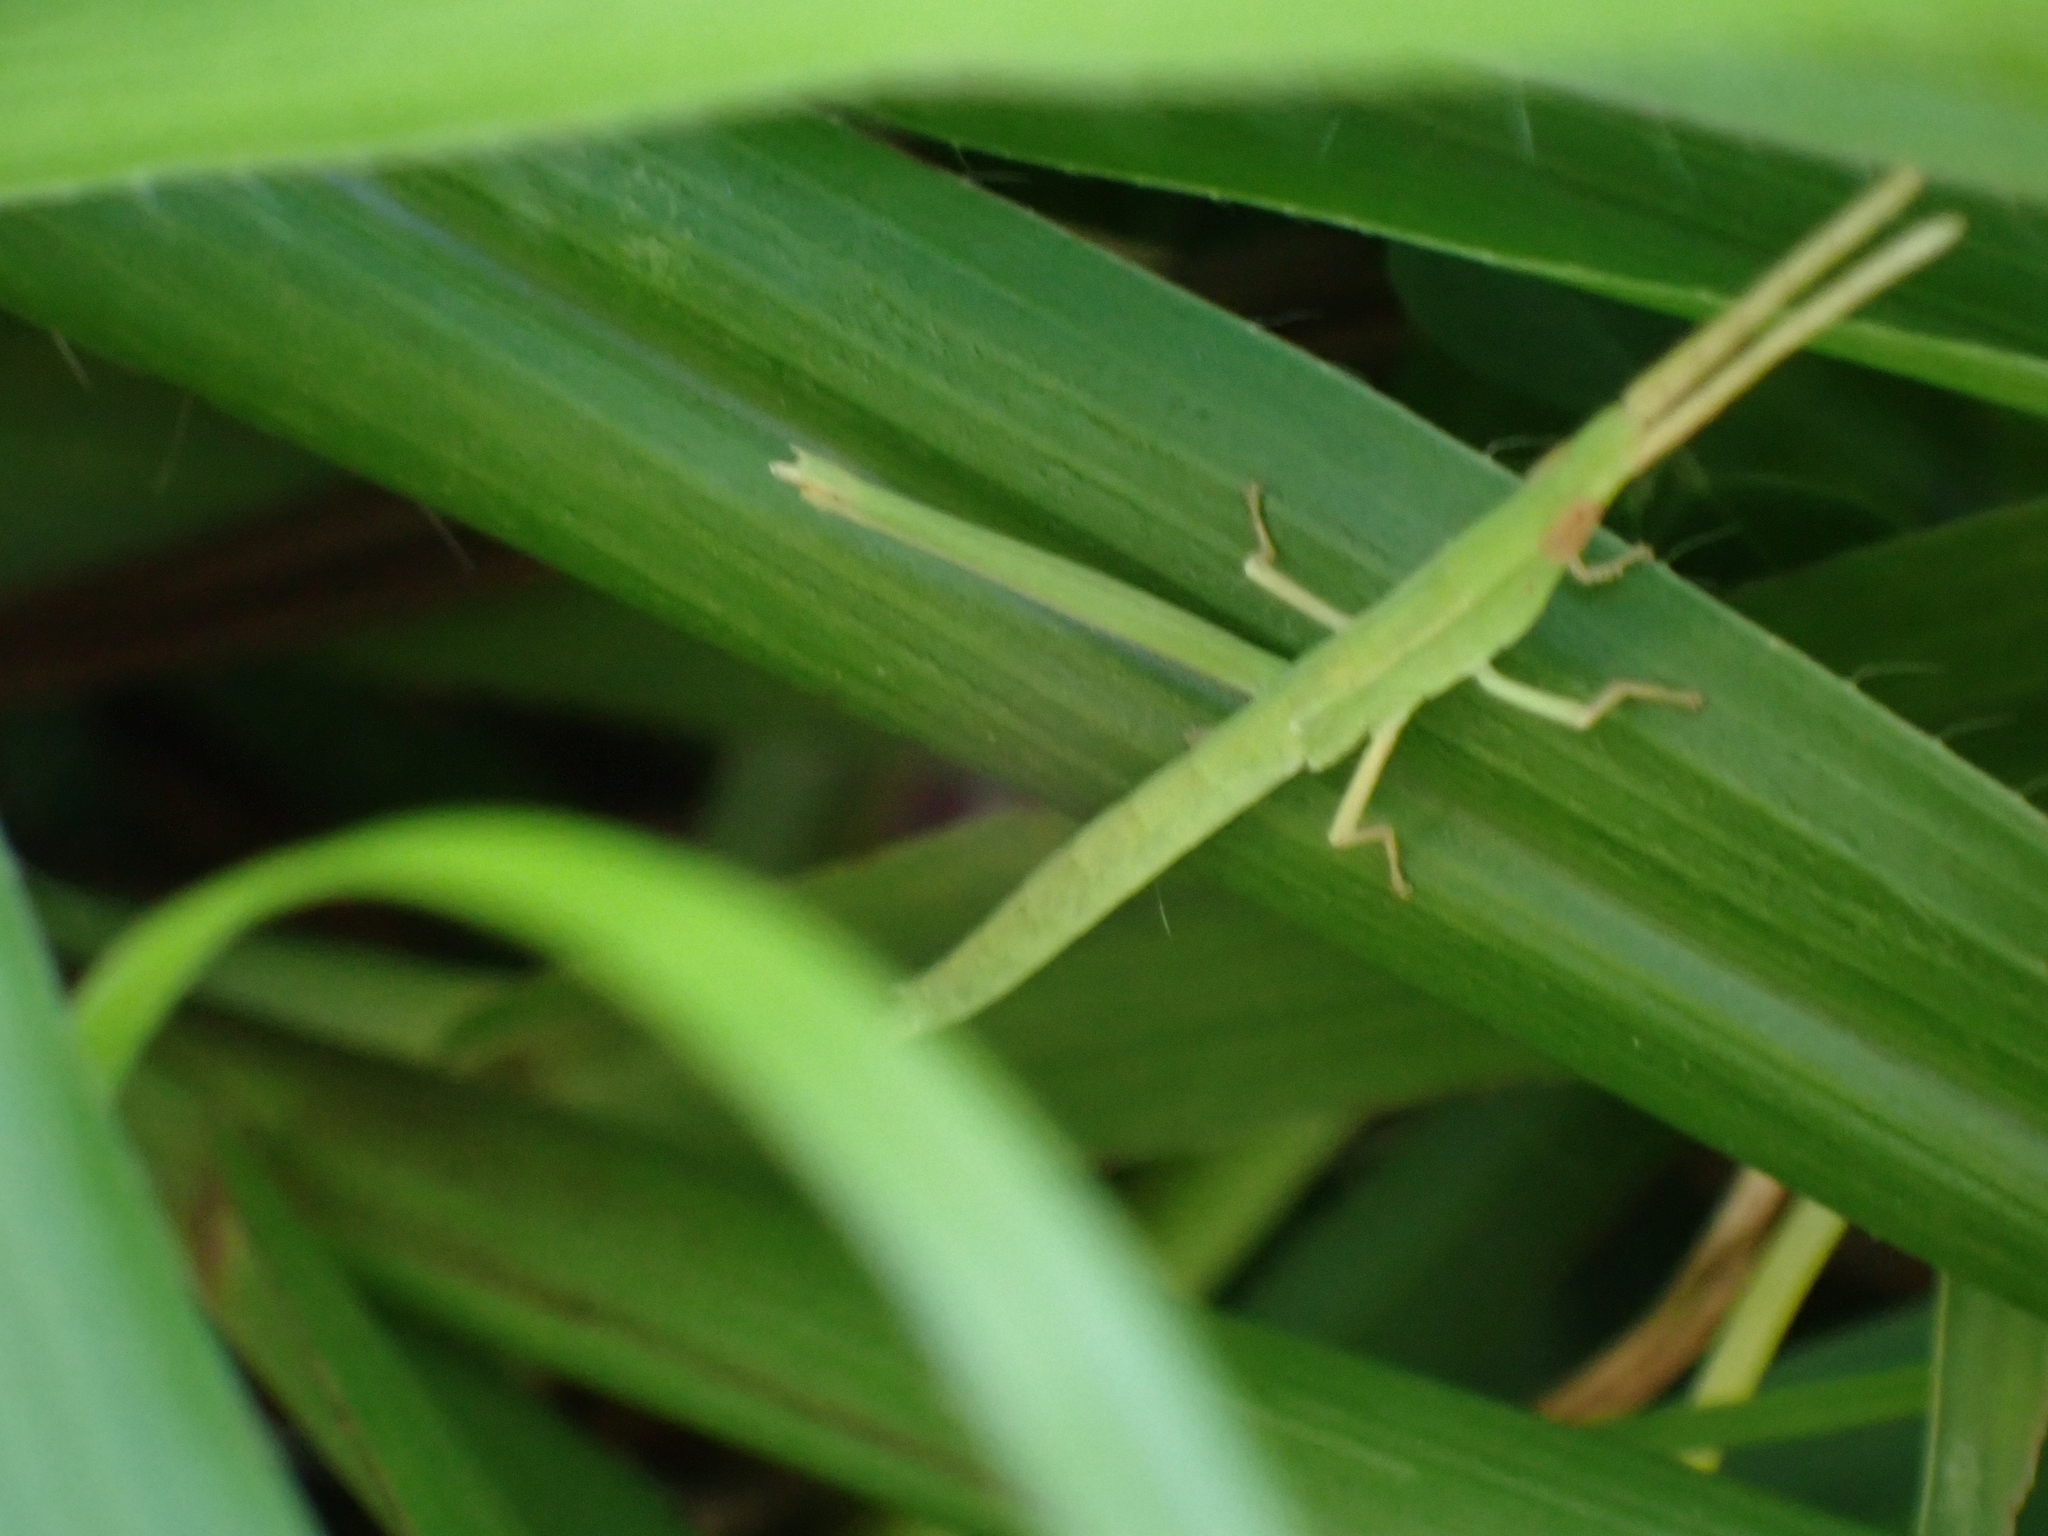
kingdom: Animalia
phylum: Arthropoda
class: Insecta
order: Orthoptera
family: Acrididae
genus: Achurum
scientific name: Achurum carinatum
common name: Long-headed toothpick grasshopper
